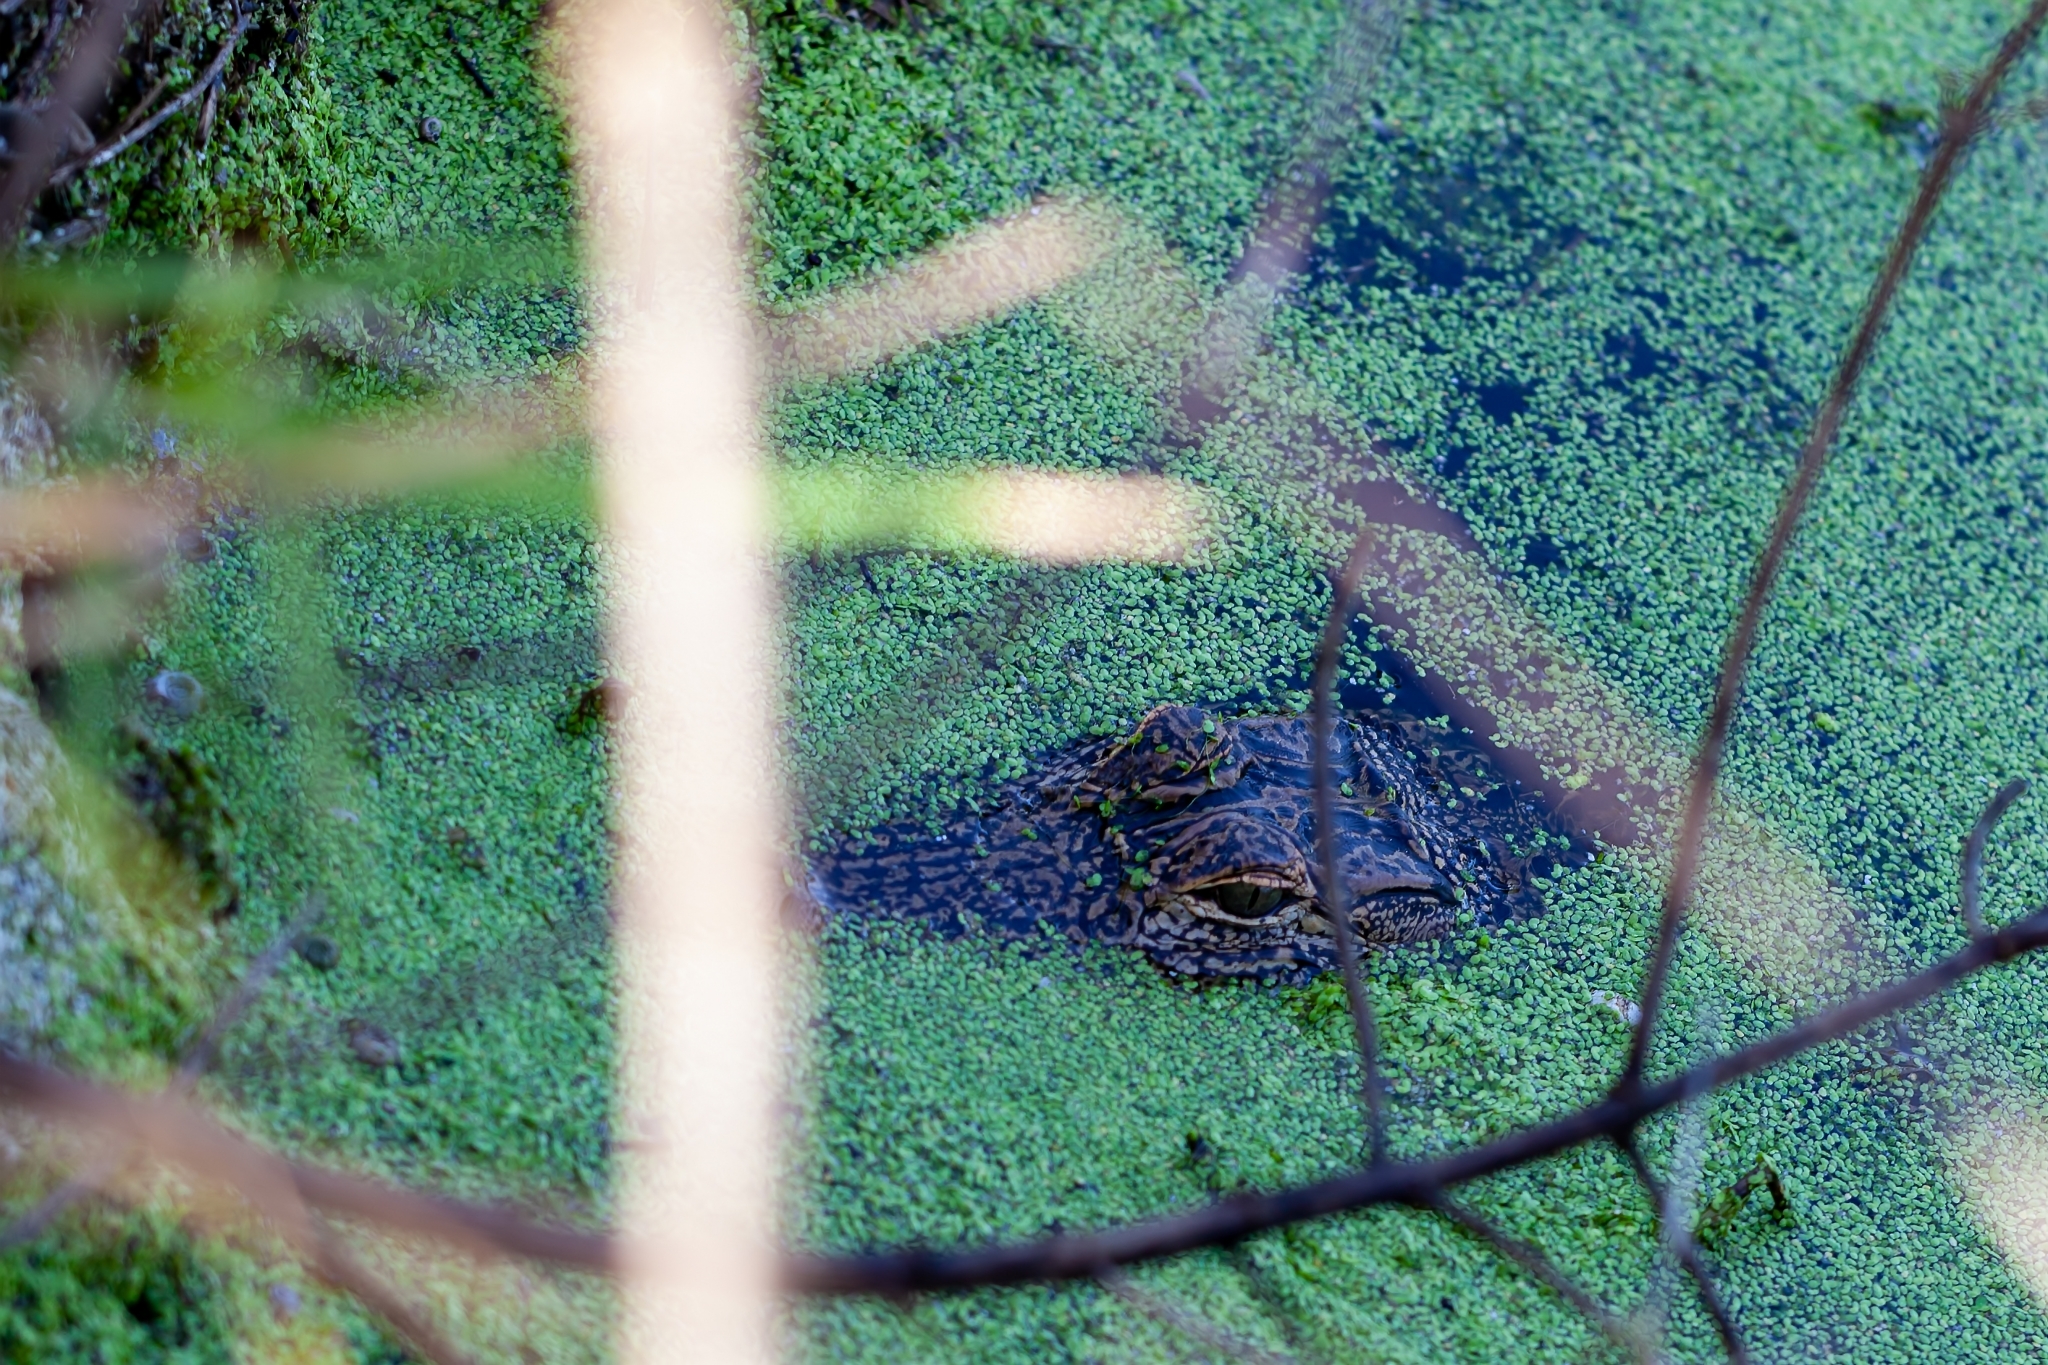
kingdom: Animalia
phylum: Chordata
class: Crocodylia
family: Alligatoridae
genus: Alligator
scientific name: Alligator mississippiensis
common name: American alligator
